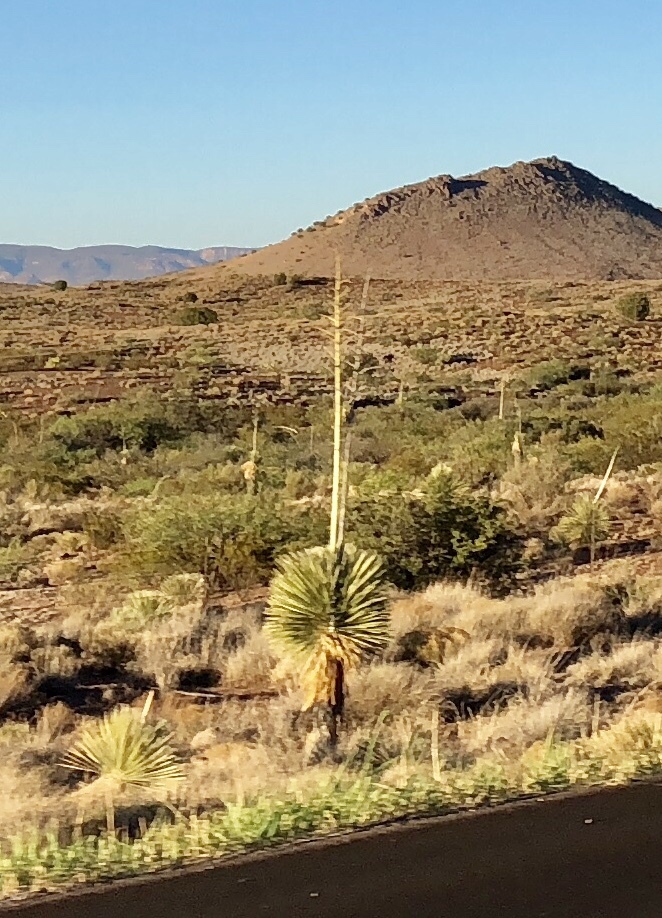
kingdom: Plantae
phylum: Tracheophyta
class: Liliopsida
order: Asparagales
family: Asparagaceae
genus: Yucca
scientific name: Yucca elata
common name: Palmella
